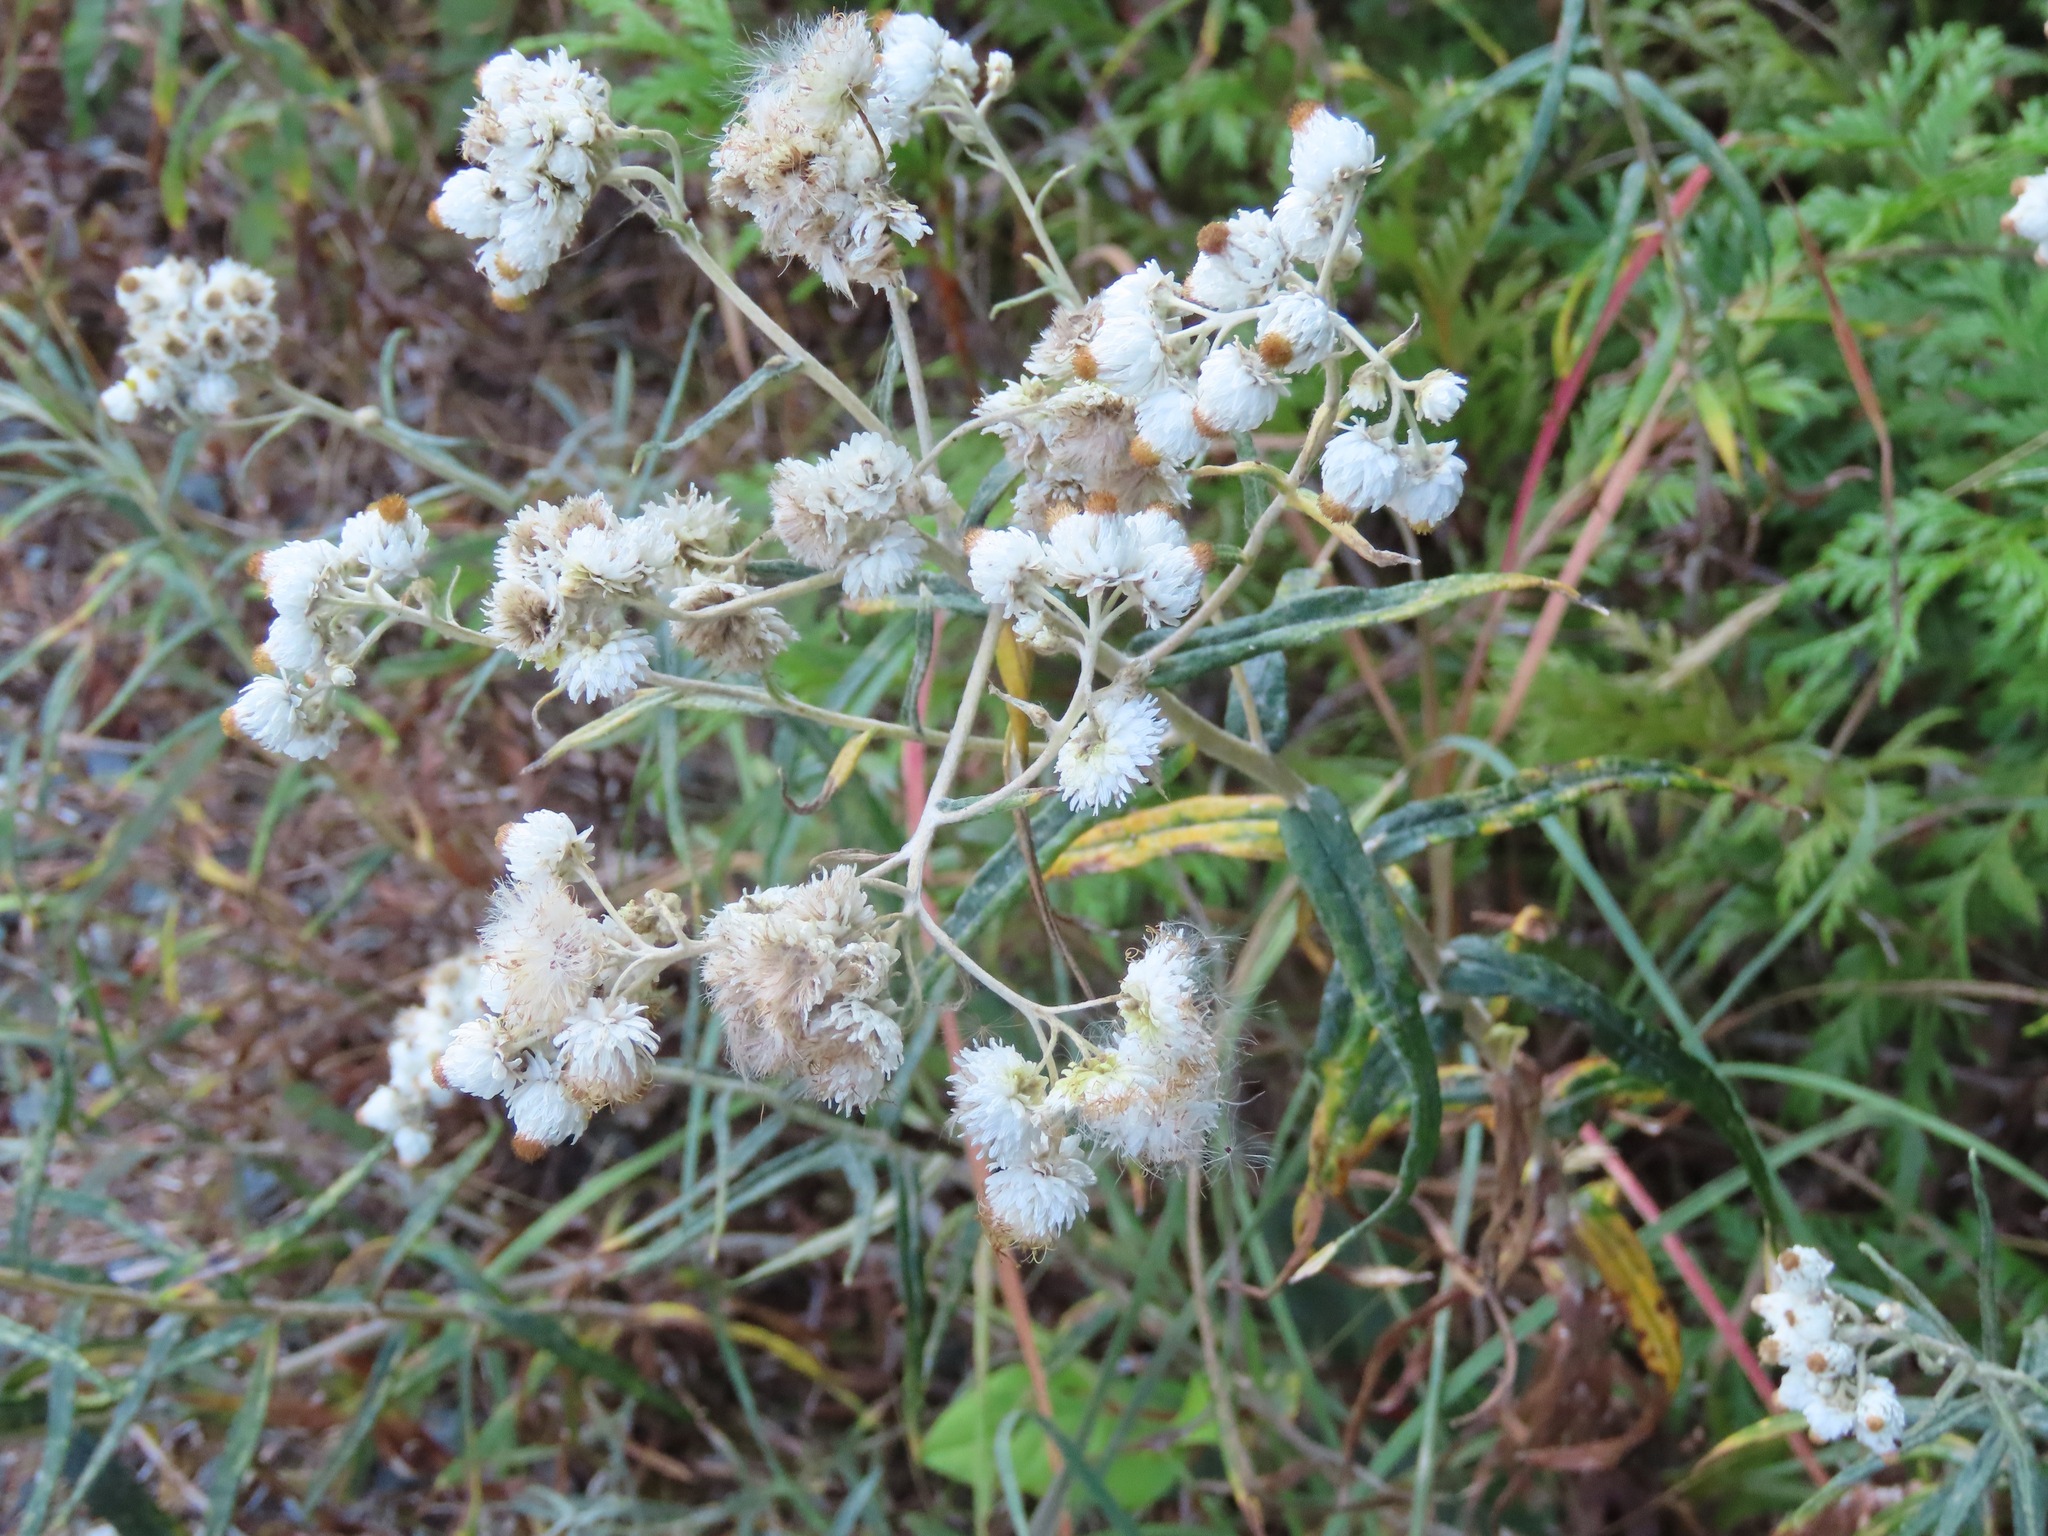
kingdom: Plantae
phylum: Tracheophyta
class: Magnoliopsida
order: Asterales
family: Asteraceae
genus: Anaphalis
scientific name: Anaphalis margaritacea
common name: Pearly everlasting
